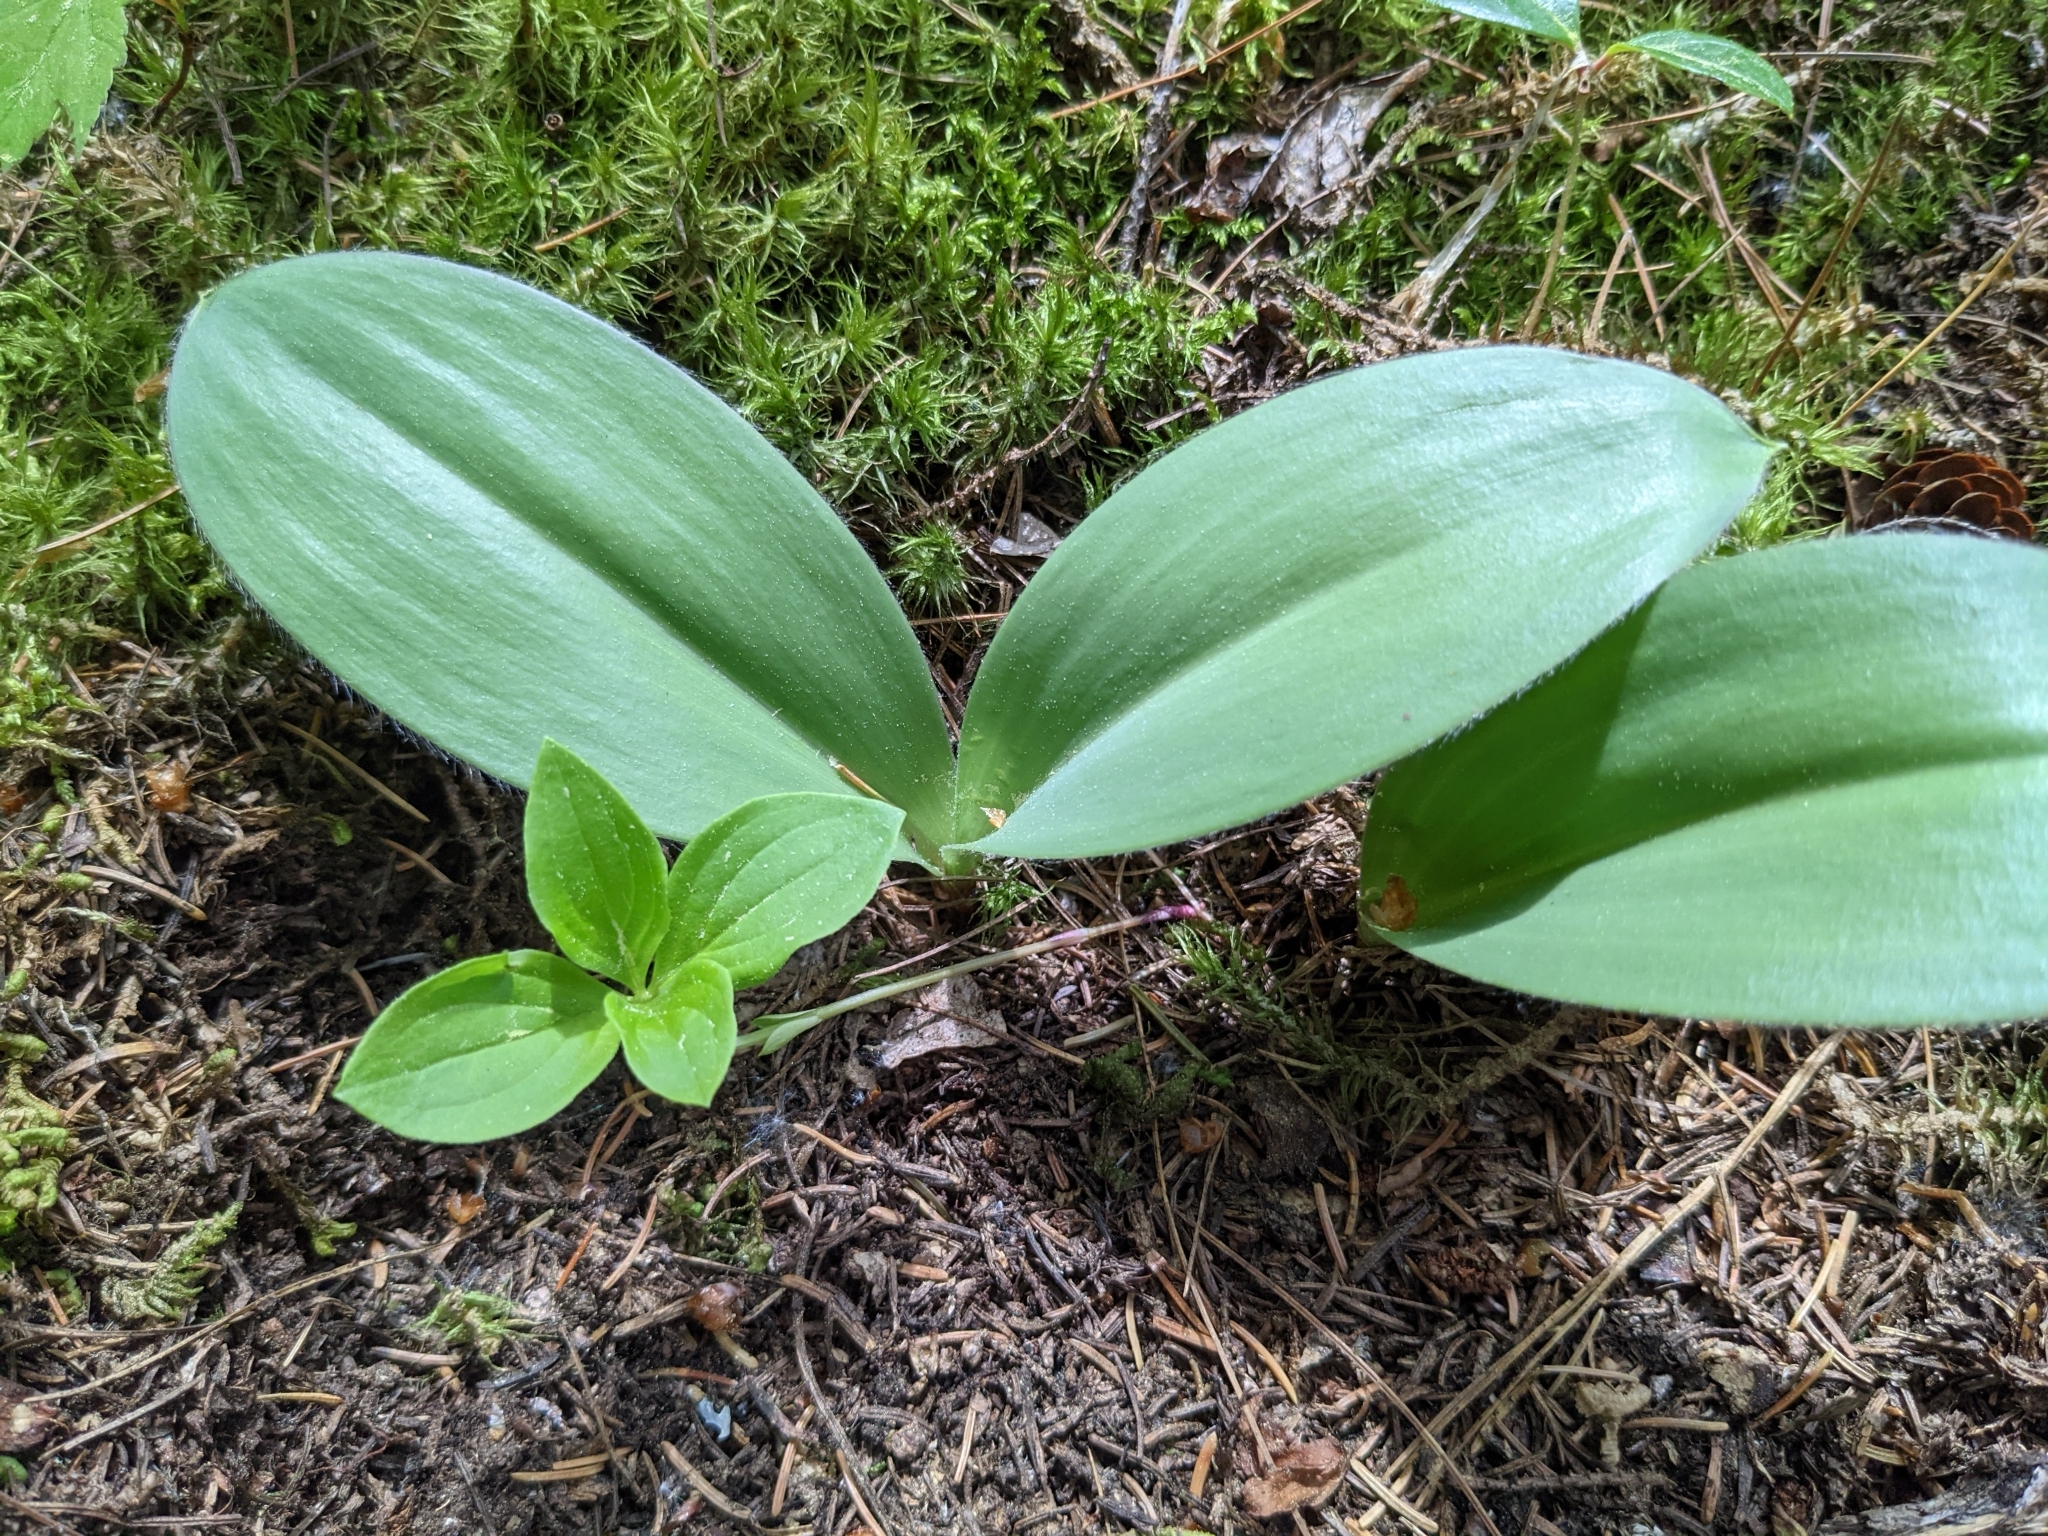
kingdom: Plantae
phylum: Tracheophyta
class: Liliopsida
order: Liliales
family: Liliaceae
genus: Clintonia
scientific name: Clintonia borealis
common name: Yellow clintonia
